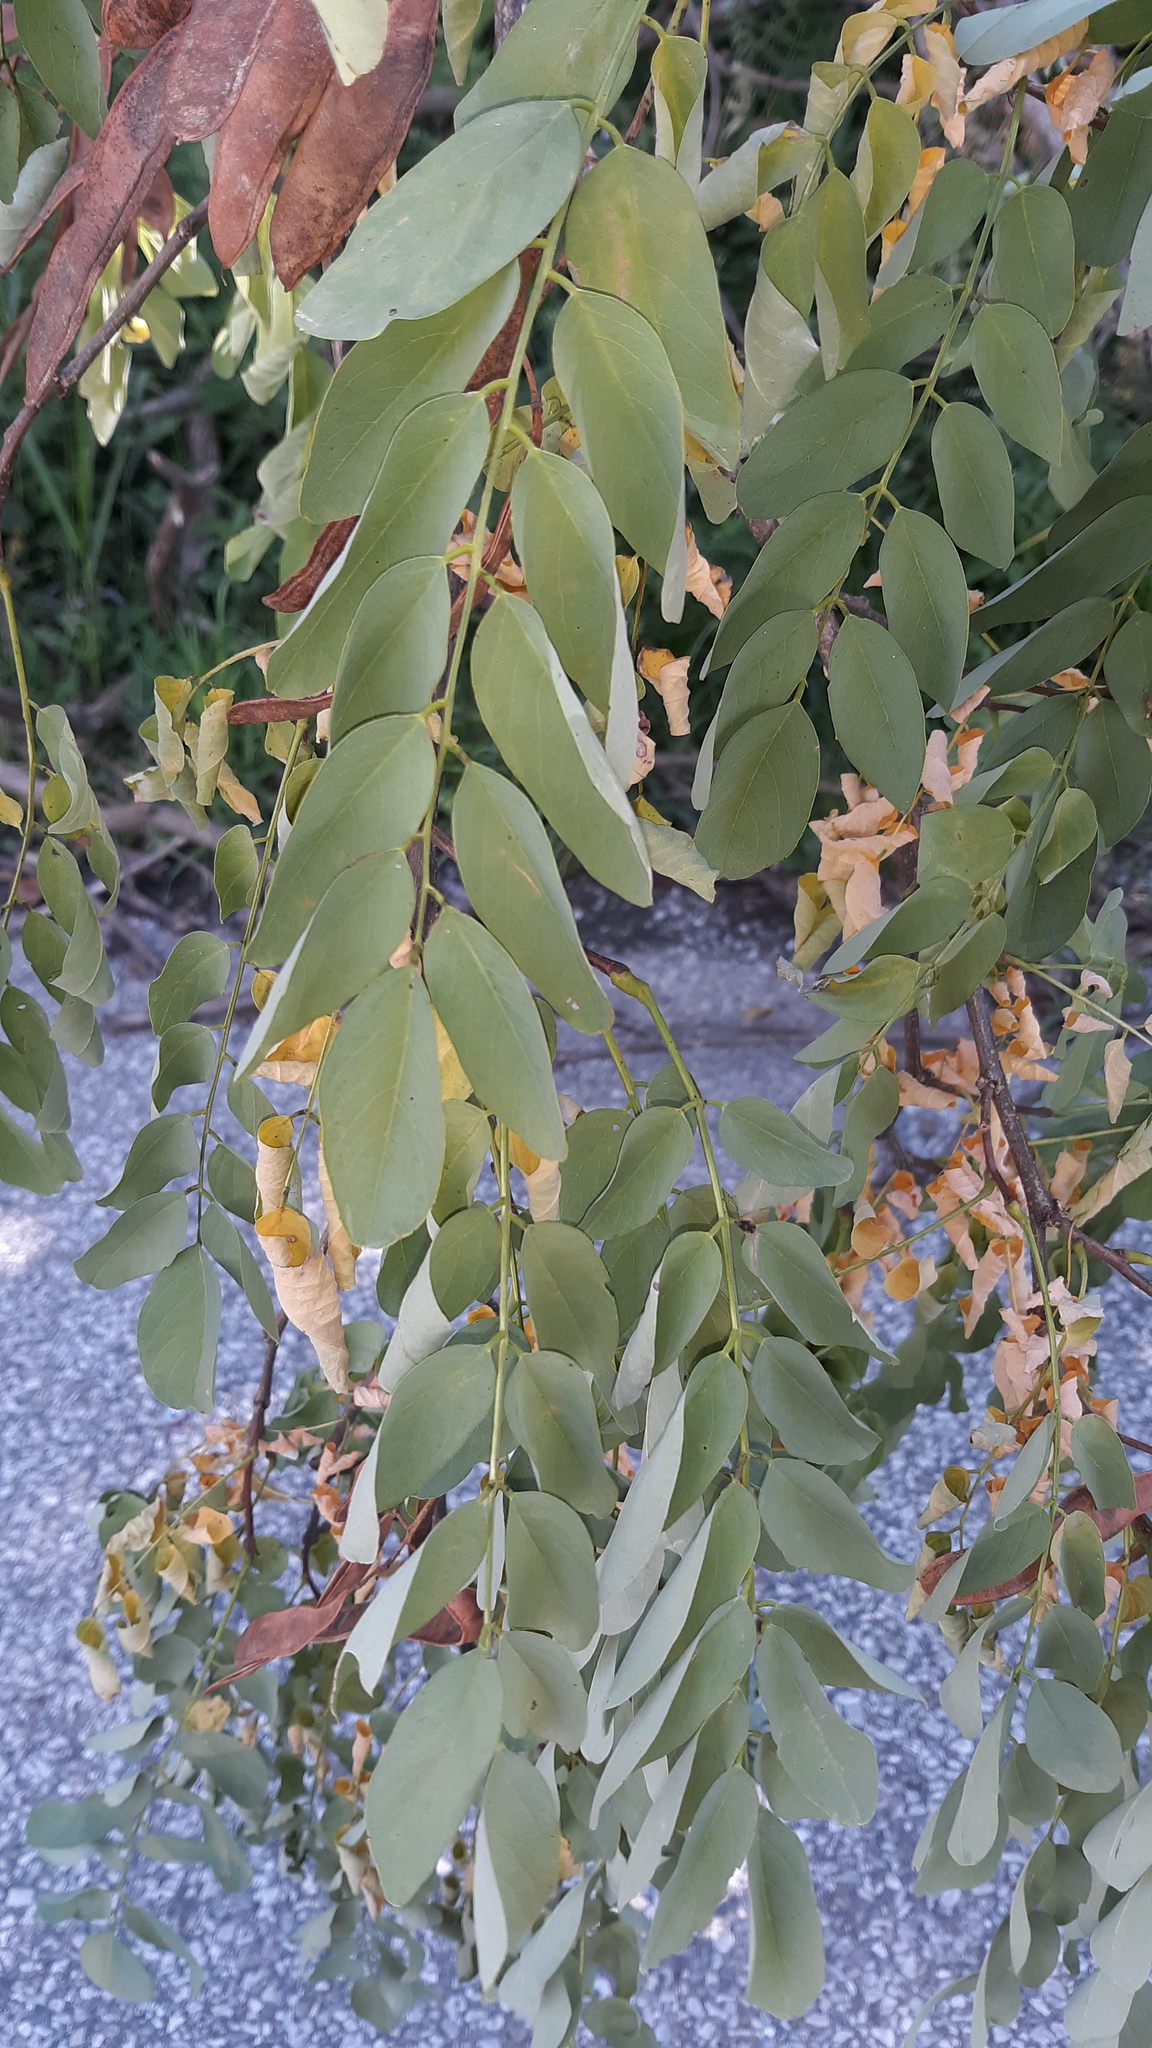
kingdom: Plantae
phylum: Tracheophyta
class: Magnoliopsida
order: Fabales
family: Fabaceae
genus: Robinia
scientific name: Robinia pseudoacacia
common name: Black locust
